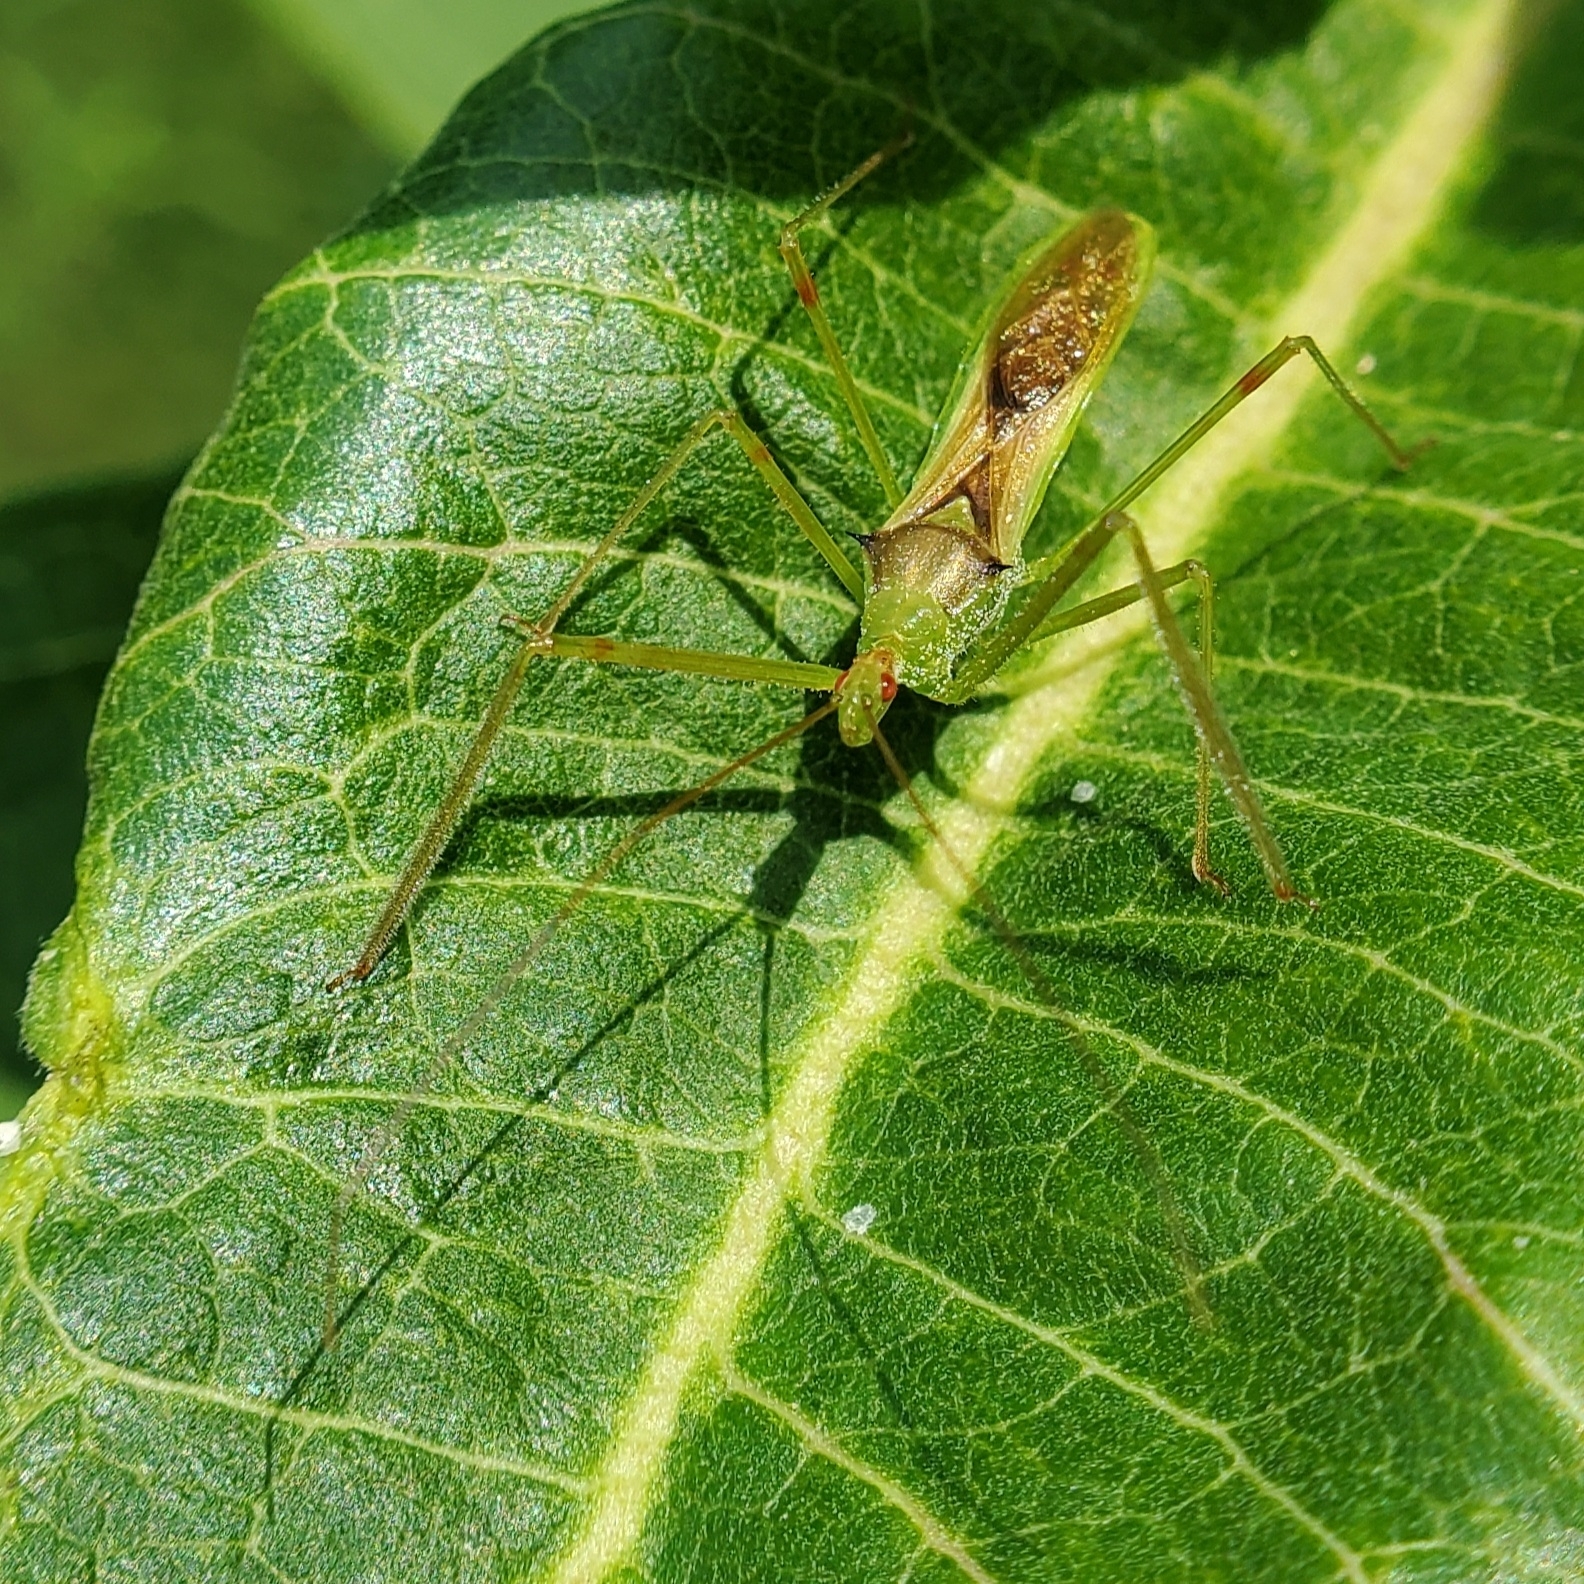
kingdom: Animalia
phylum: Arthropoda
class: Insecta
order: Hemiptera
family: Reduviidae
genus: Zelus
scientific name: Zelus luridus
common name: Pale green assassin bug
